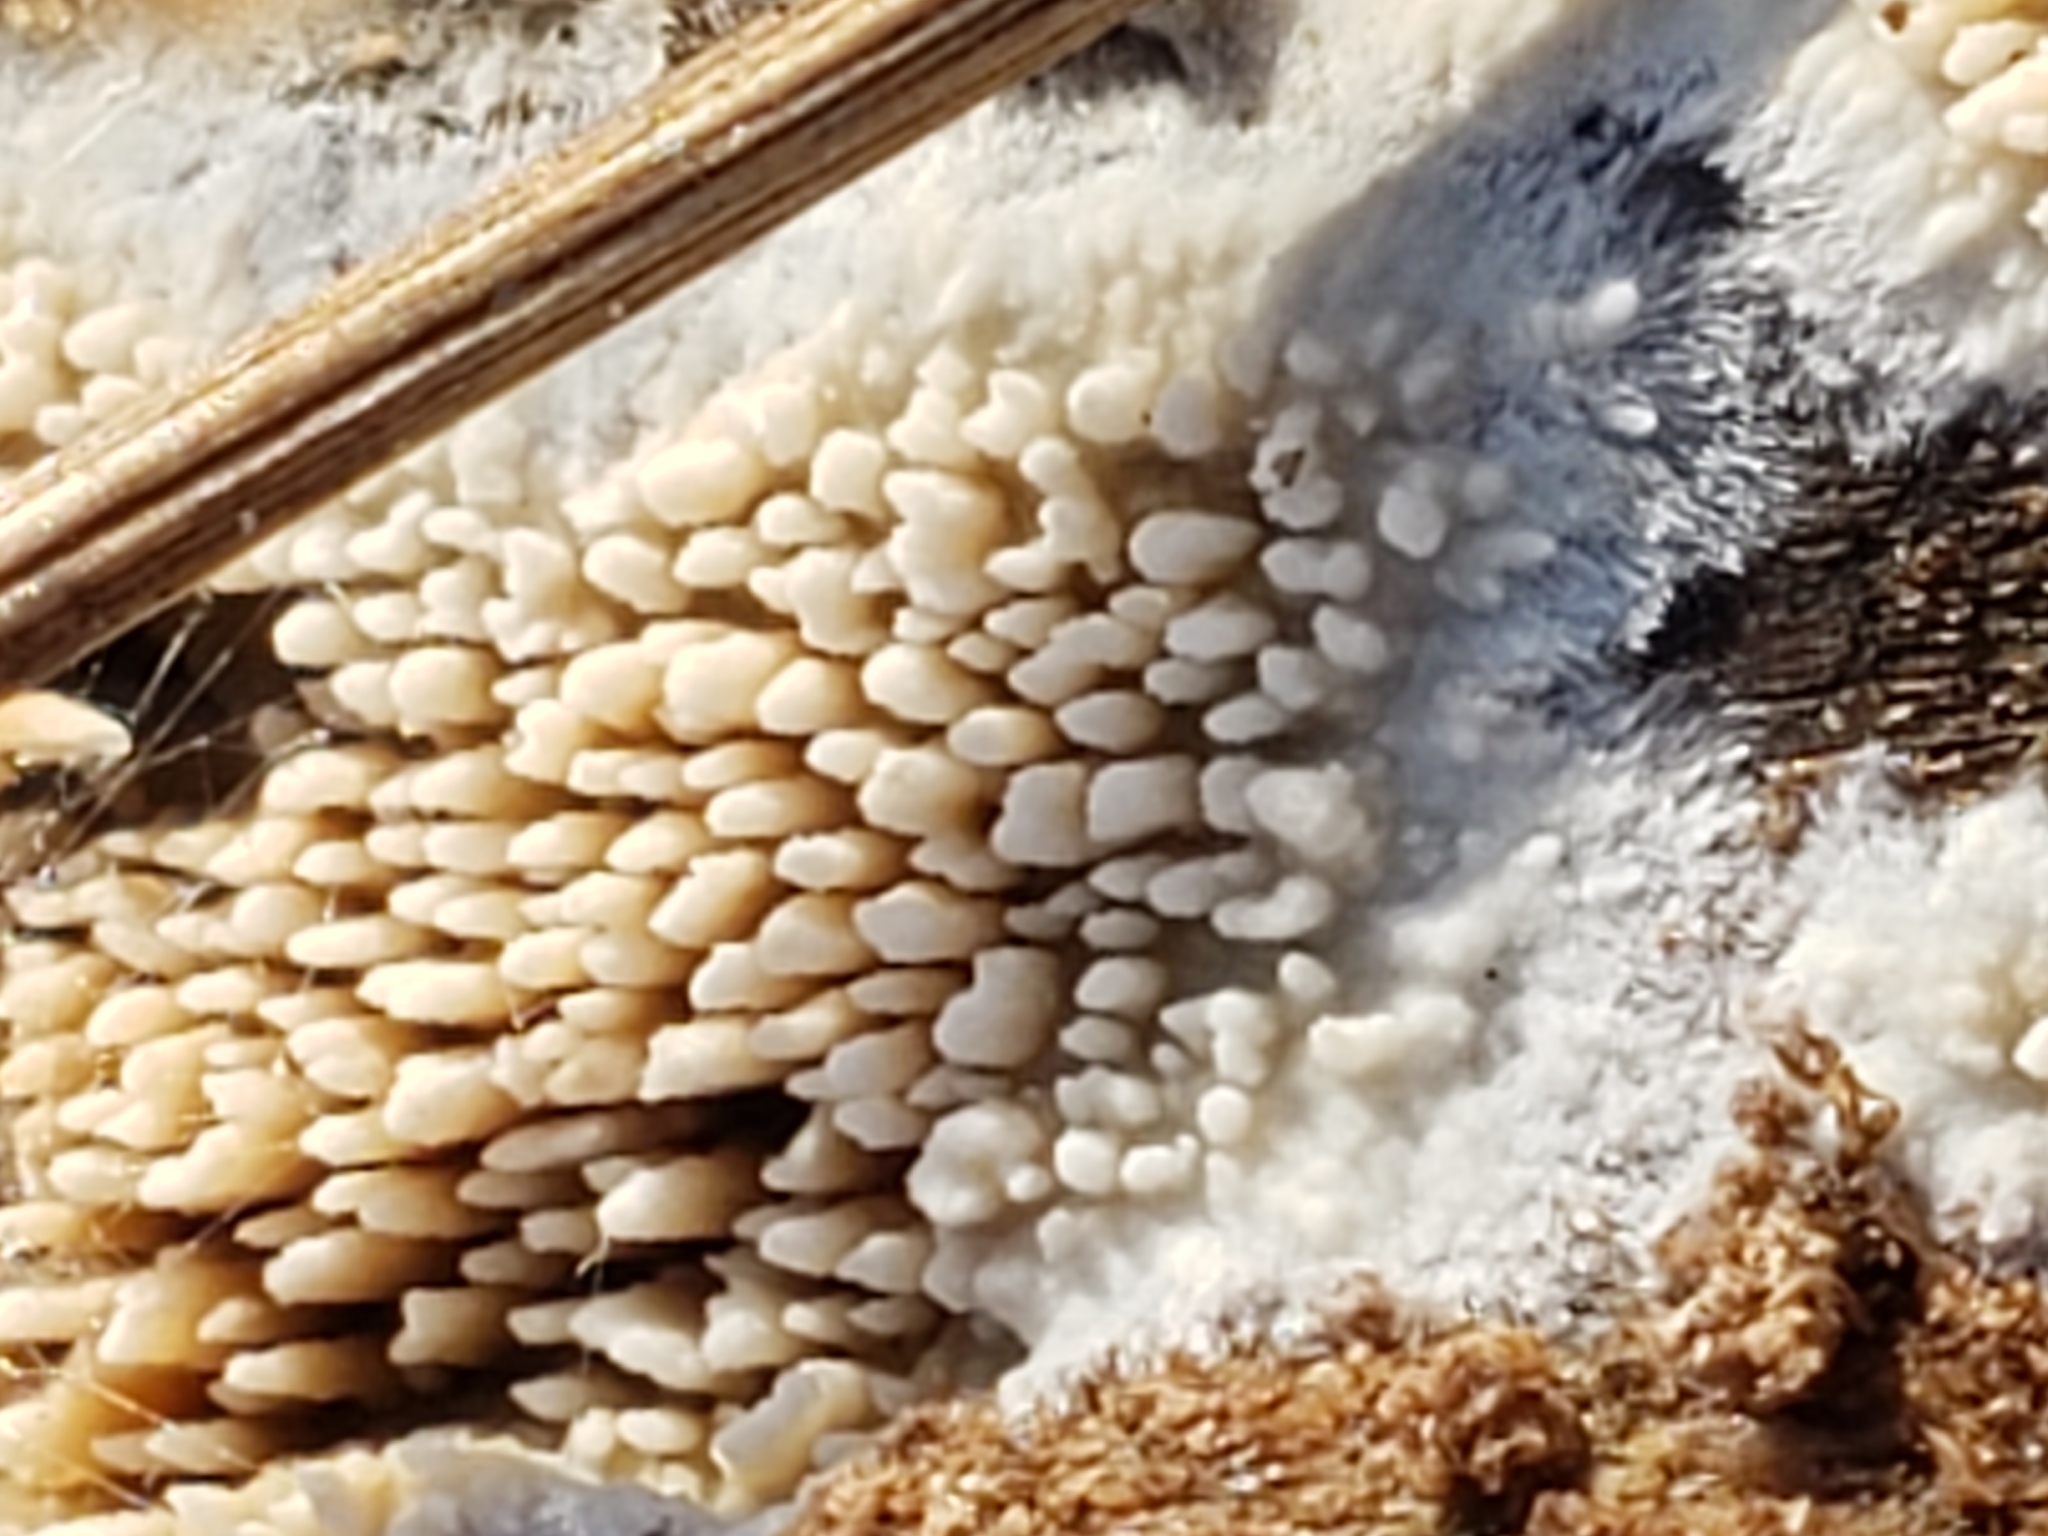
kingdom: Fungi
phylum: Basidiomycota
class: Agaricomycetes
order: Agaricales
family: Radulomycetaceae
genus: Radulomyces
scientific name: Radulomyces copelandii
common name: Asian beauty
